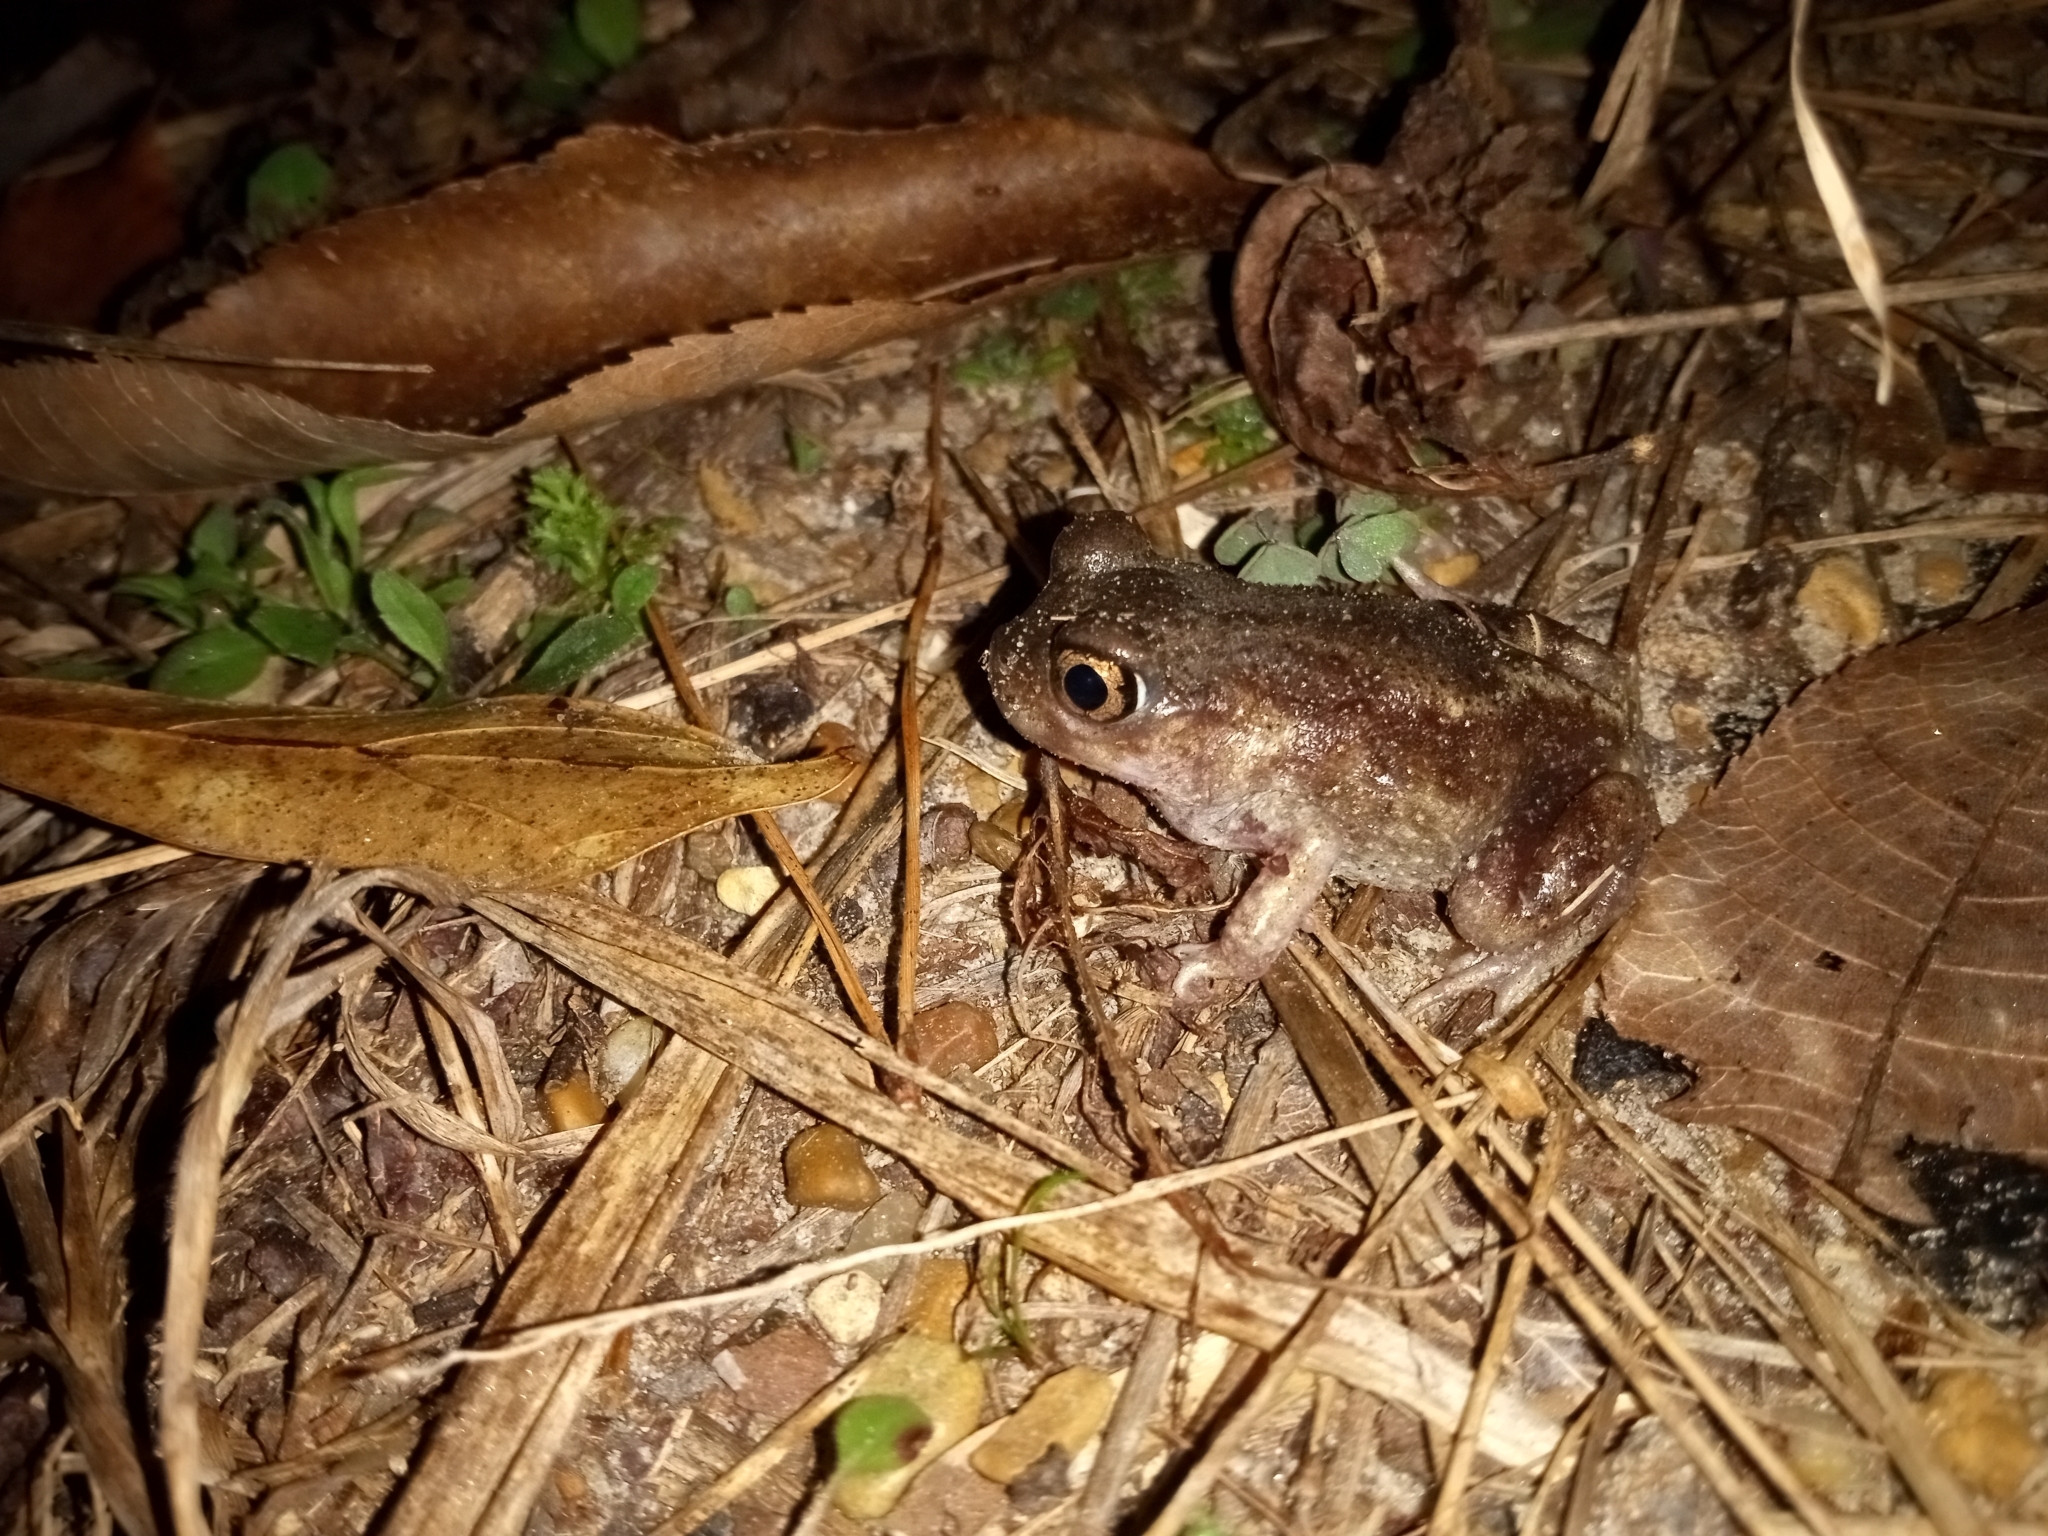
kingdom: Animalia
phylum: Chordata
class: Amphibia
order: Anura
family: Scaphiopodidae
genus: Scaphiopus
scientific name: Scaphiopus hurterii
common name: Hurter's spadefoot toad
